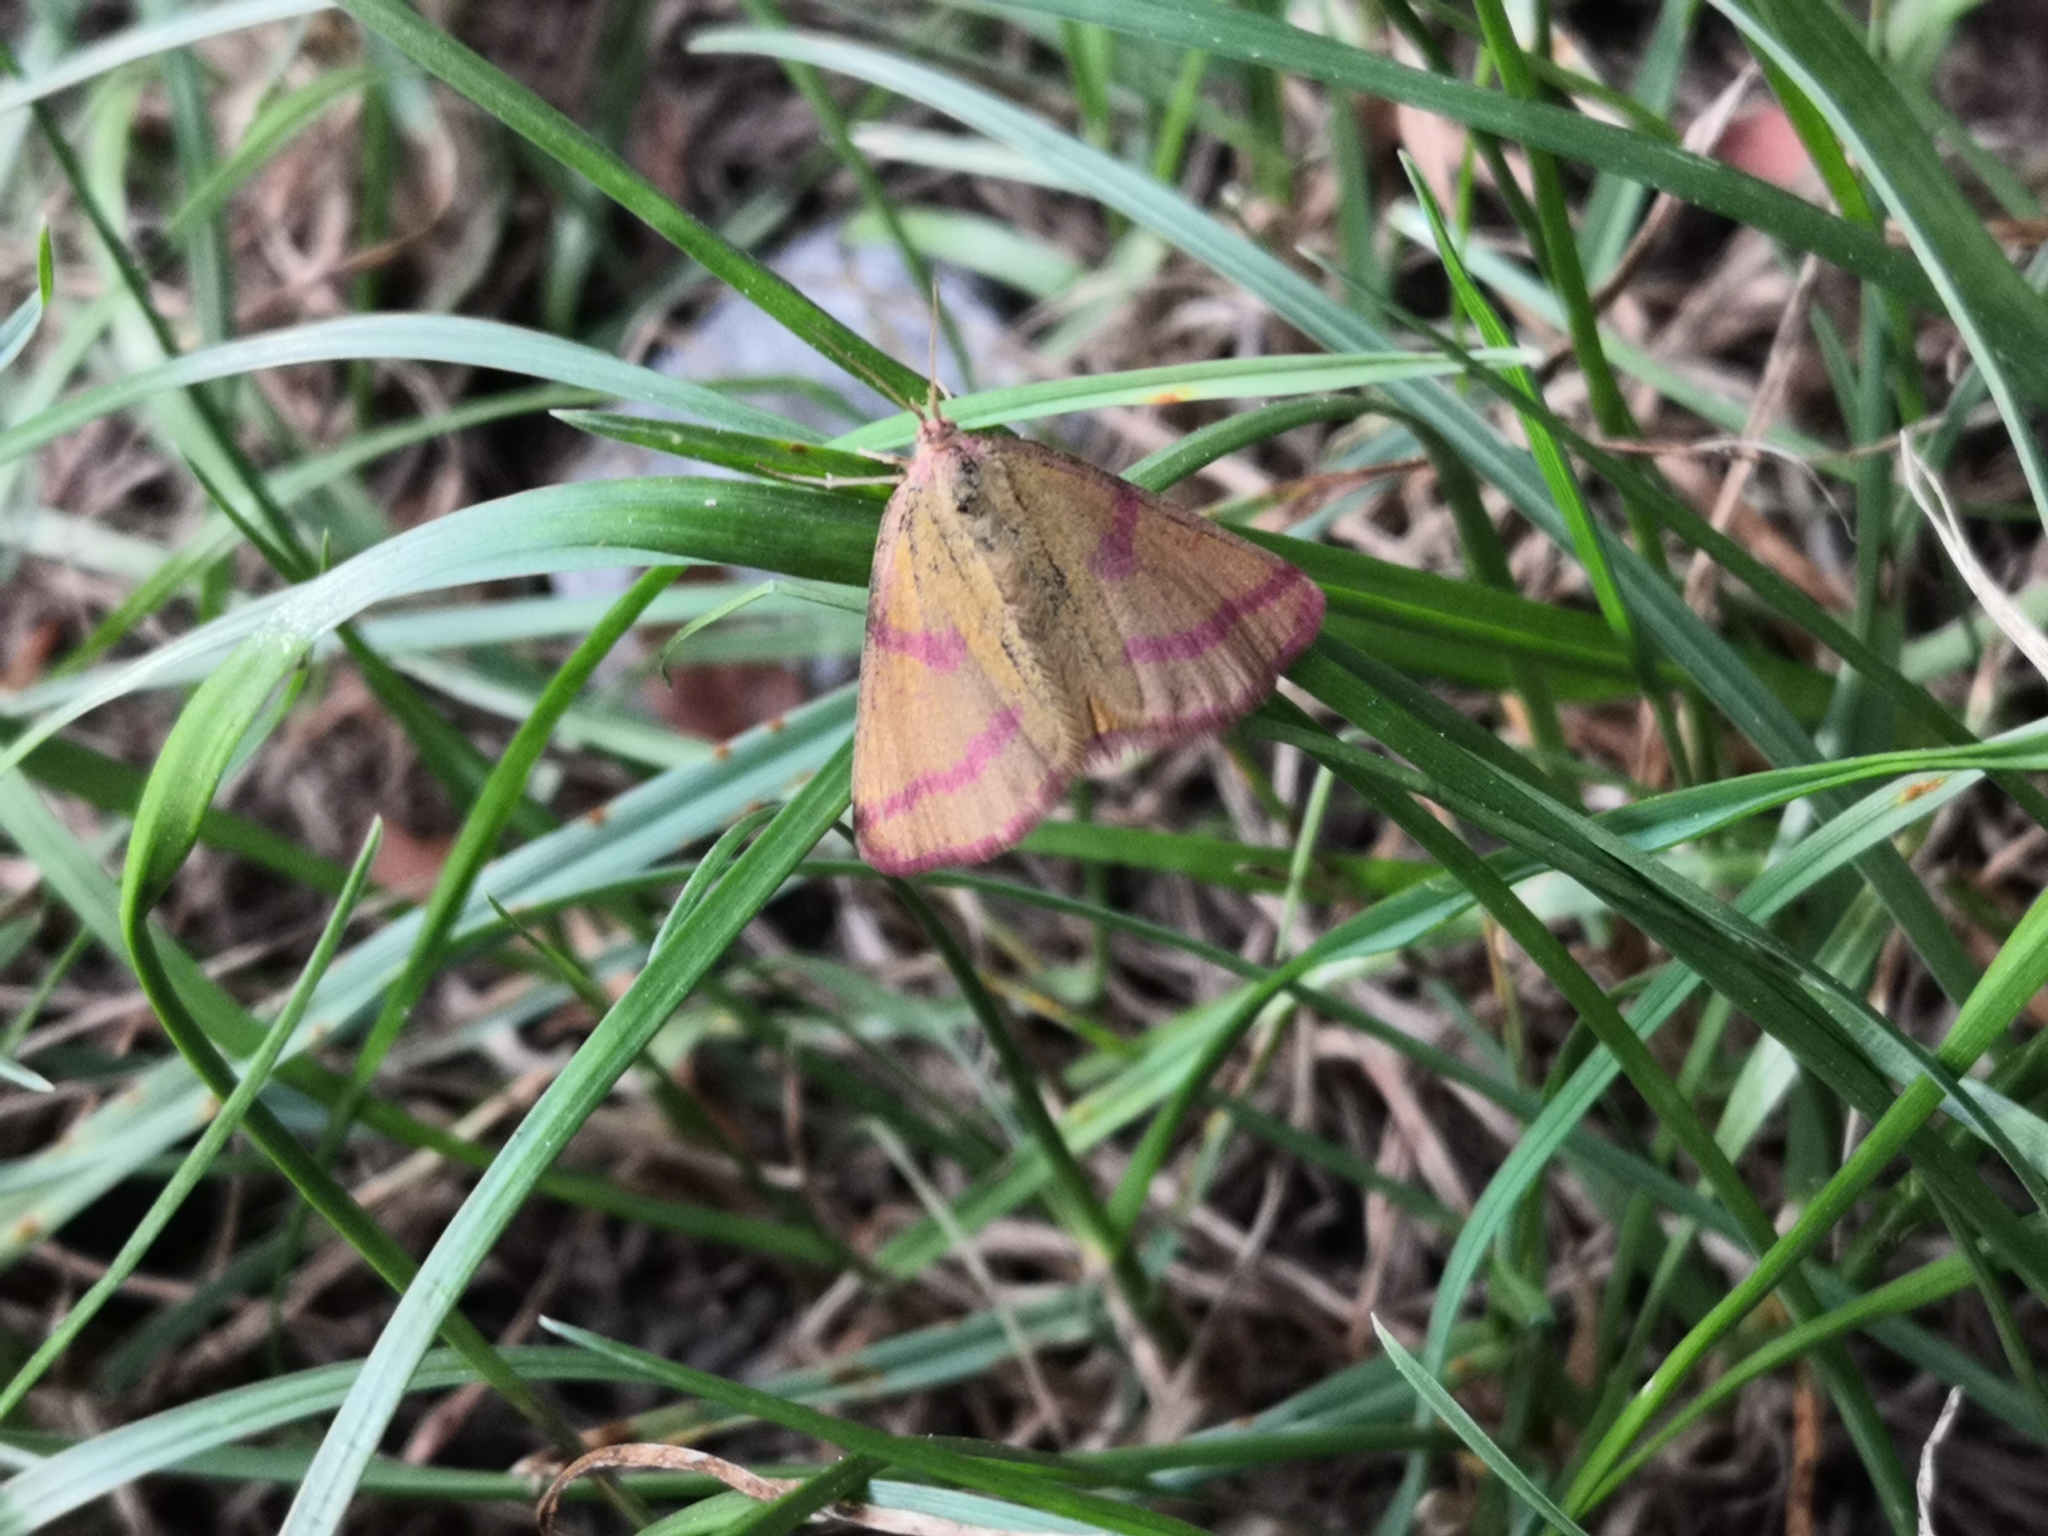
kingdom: Animalia
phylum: Arthropoda
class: Insecta
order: Lepidoptera
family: Geometridae
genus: Lythria
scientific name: Lythria purpuraria
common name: Purple-barred yellow
